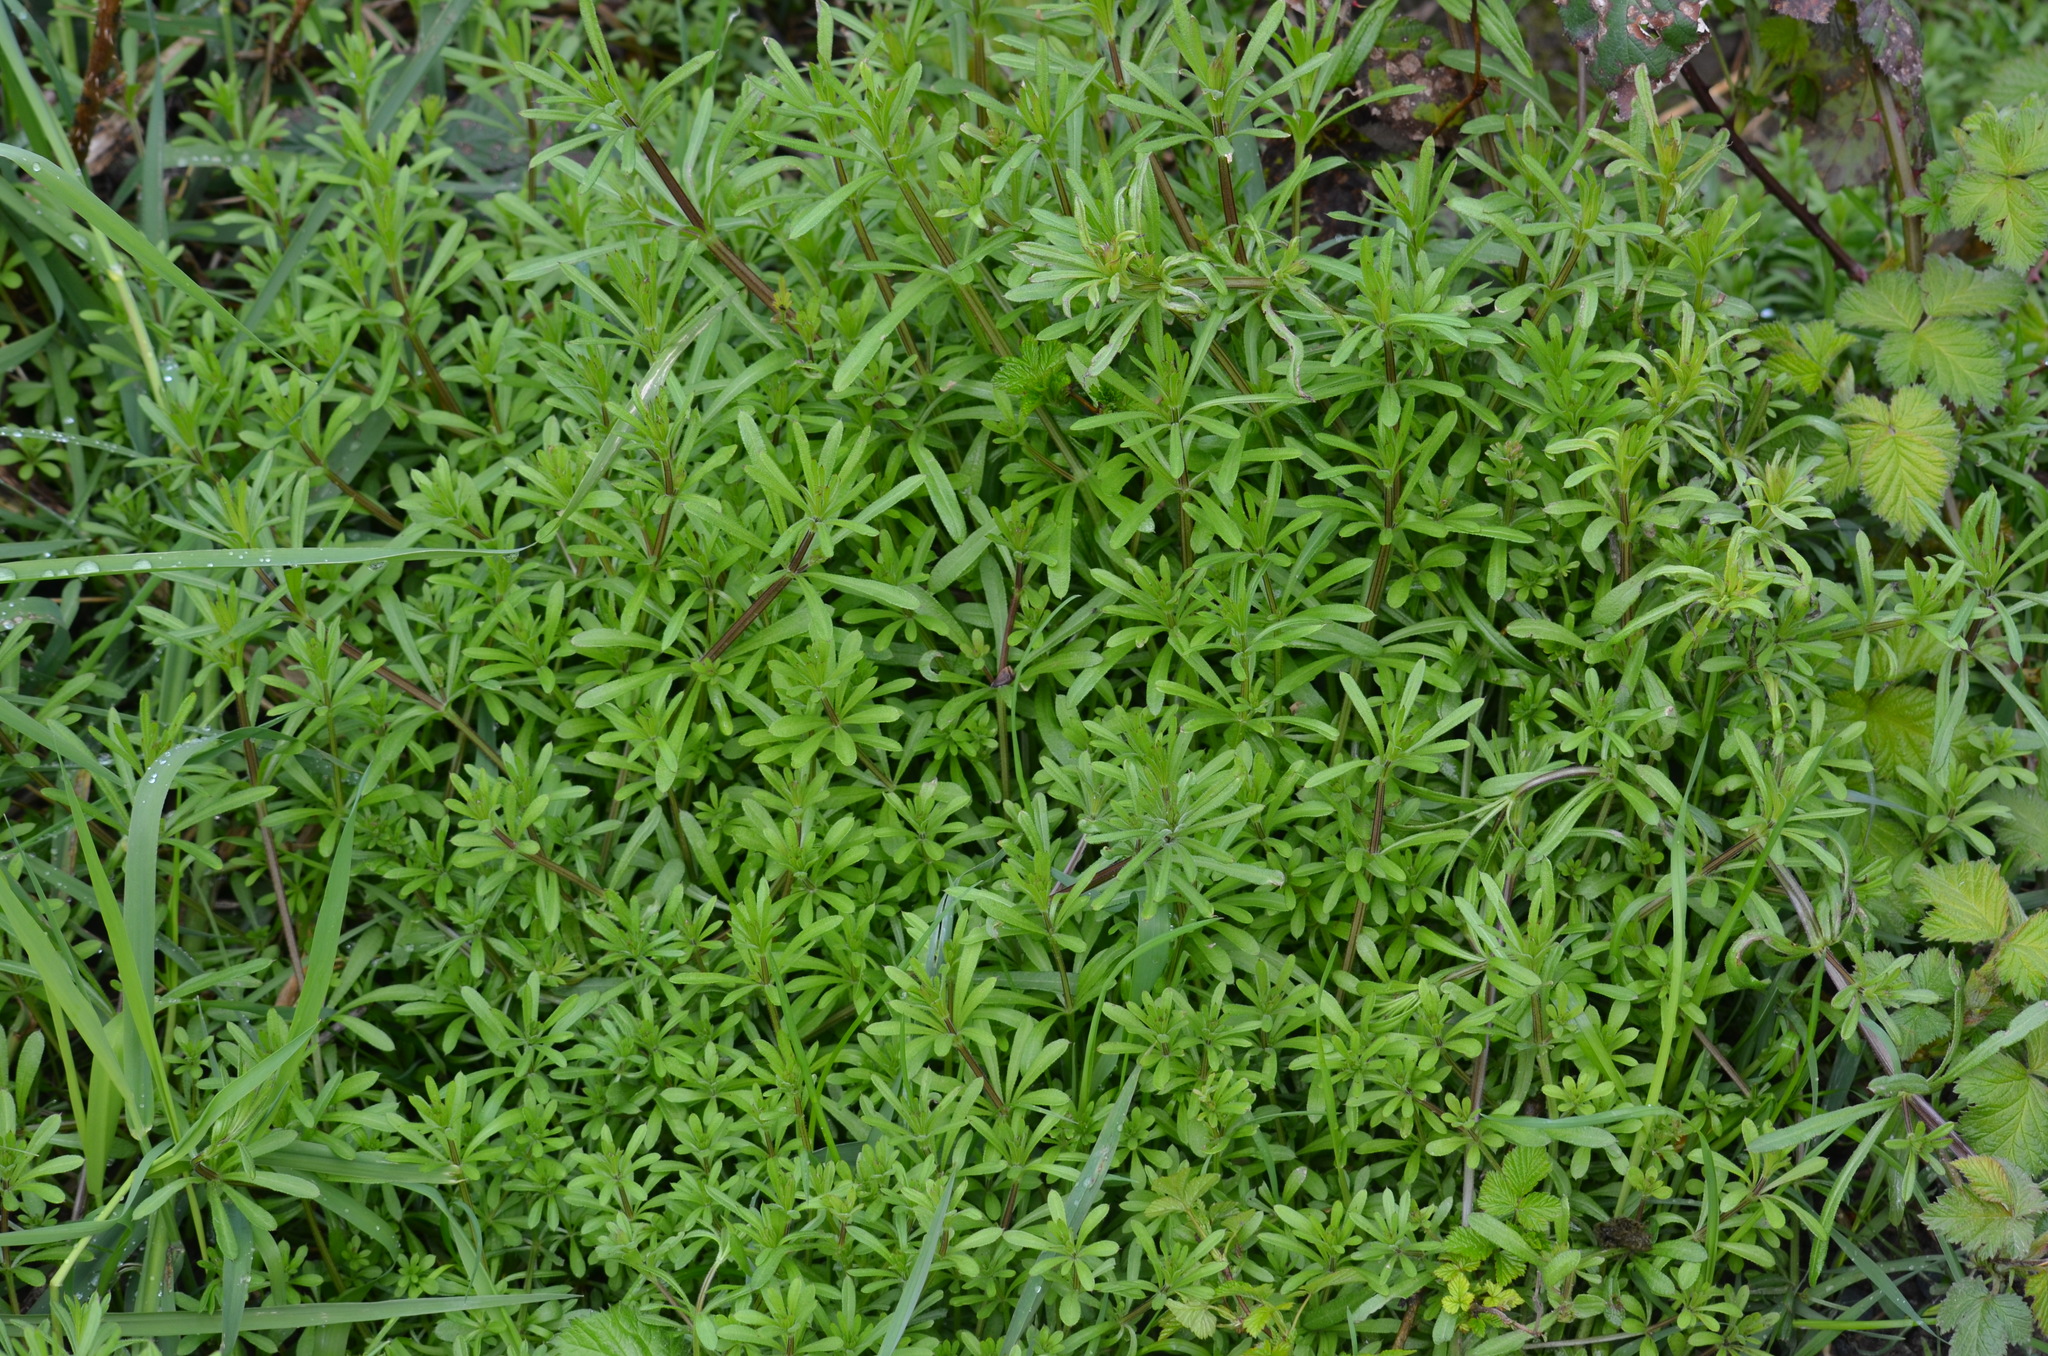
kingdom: Plantae
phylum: Tracheophyta
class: Magnoliopsida
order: Gentianales
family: Rubiaceae
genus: Galium
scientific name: Galium aparine
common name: Cleavers
